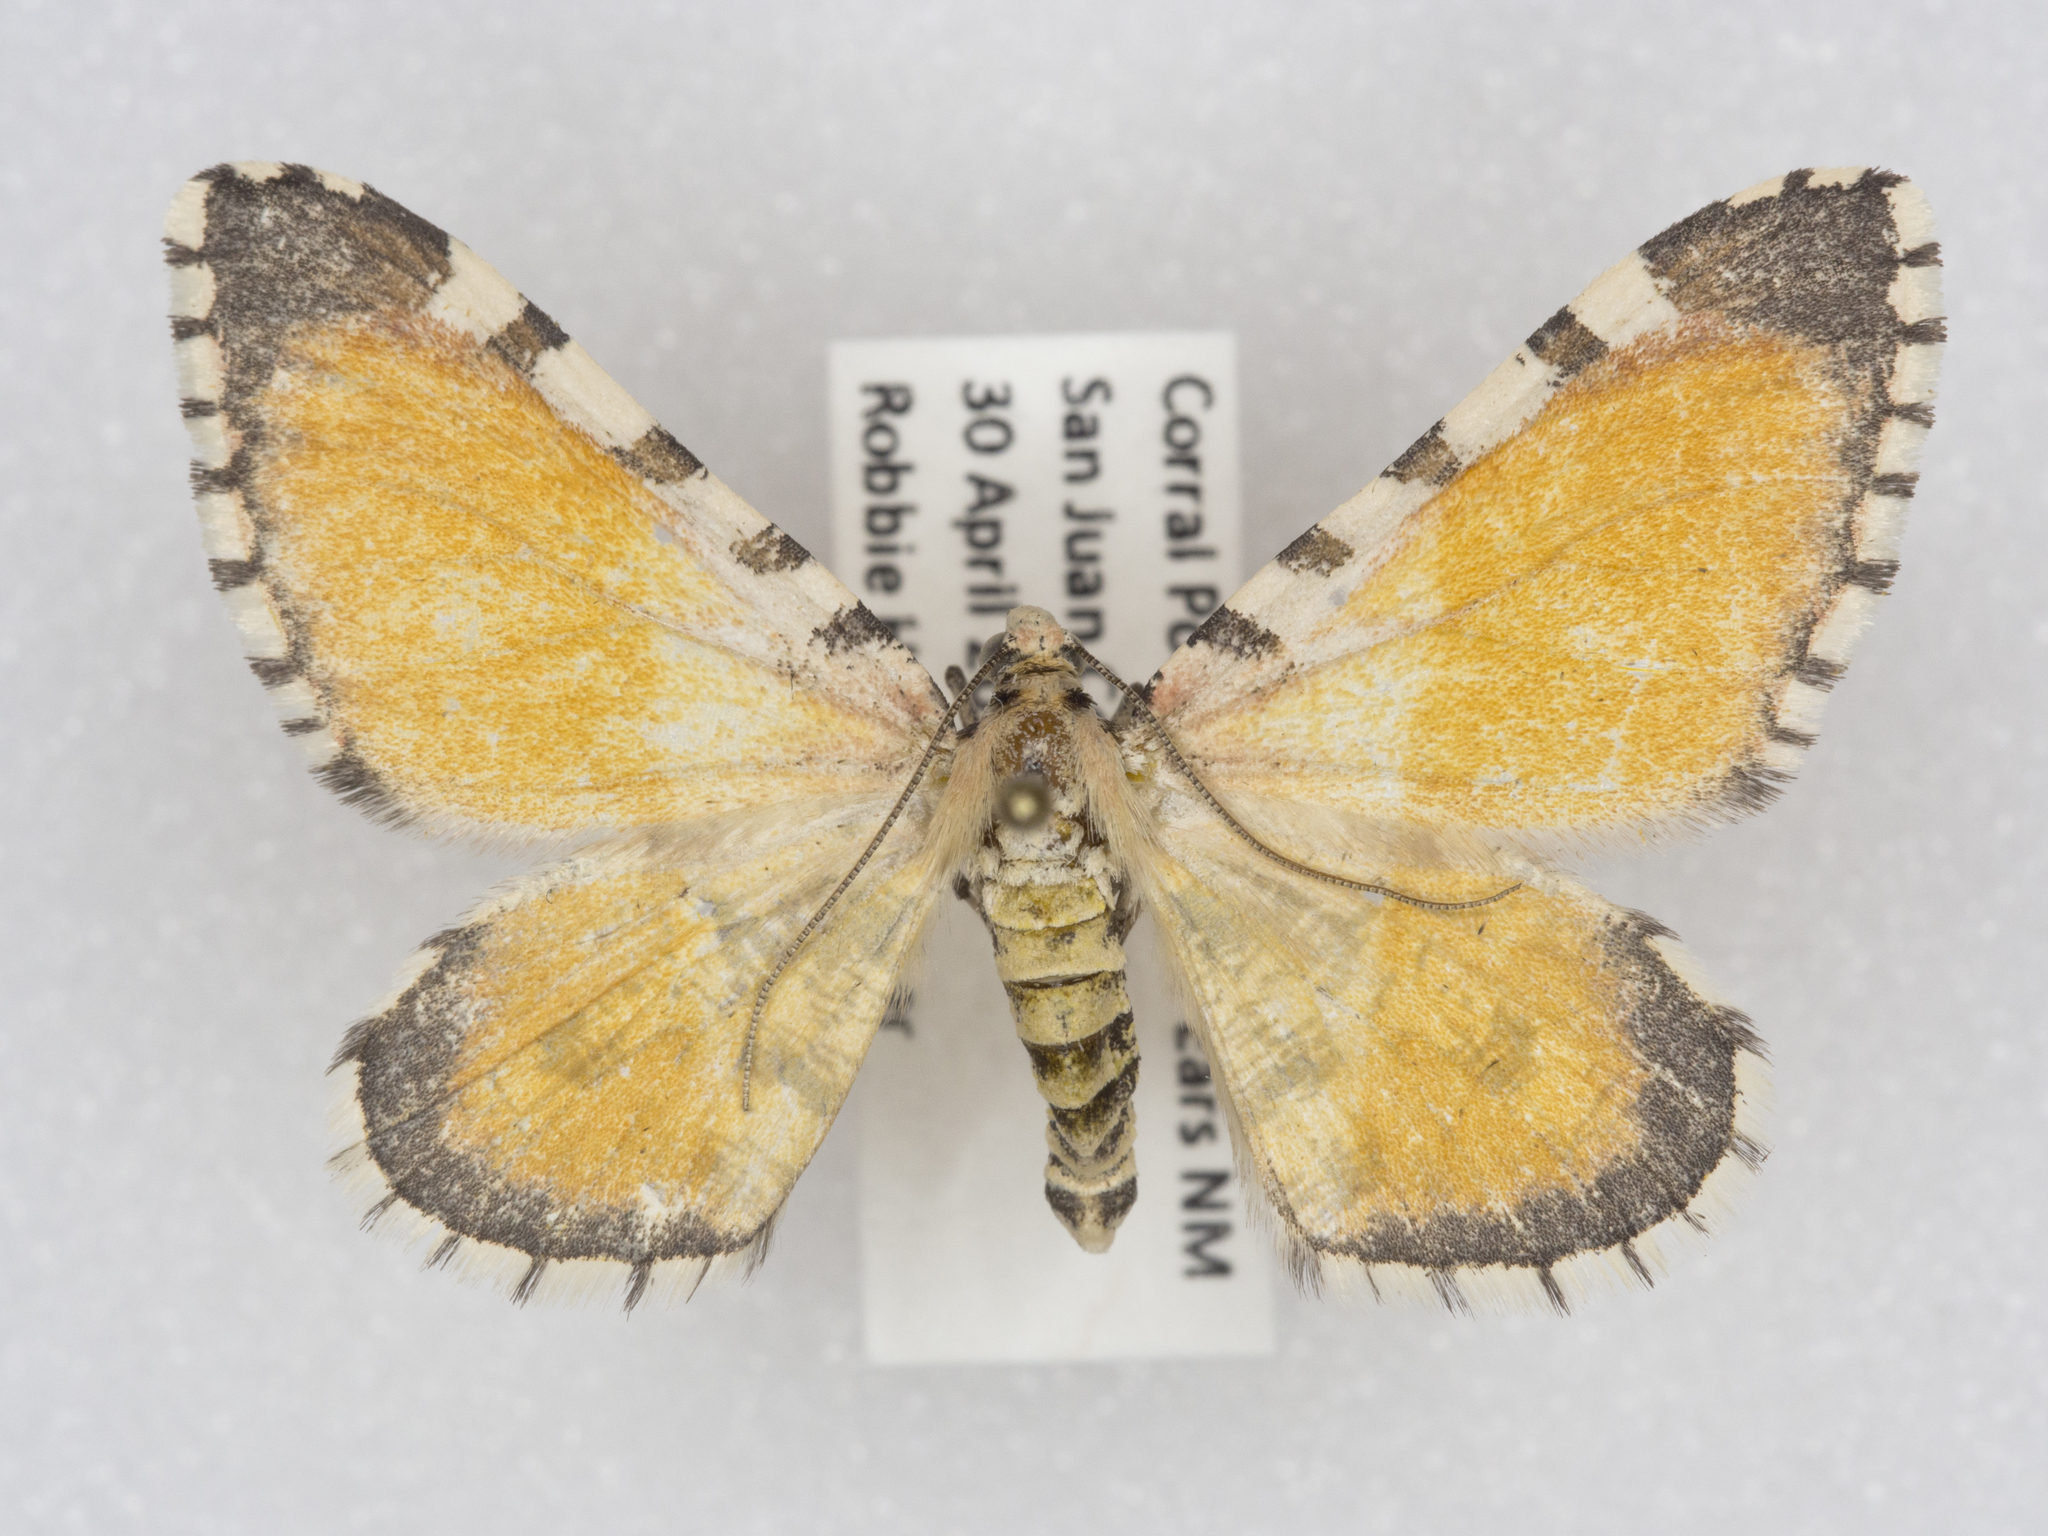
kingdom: Animalia
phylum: Arthropoda
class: Insecta
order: Lepidoptera
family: Geometridae
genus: Stamnodes
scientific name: Stamnodes tessellata
